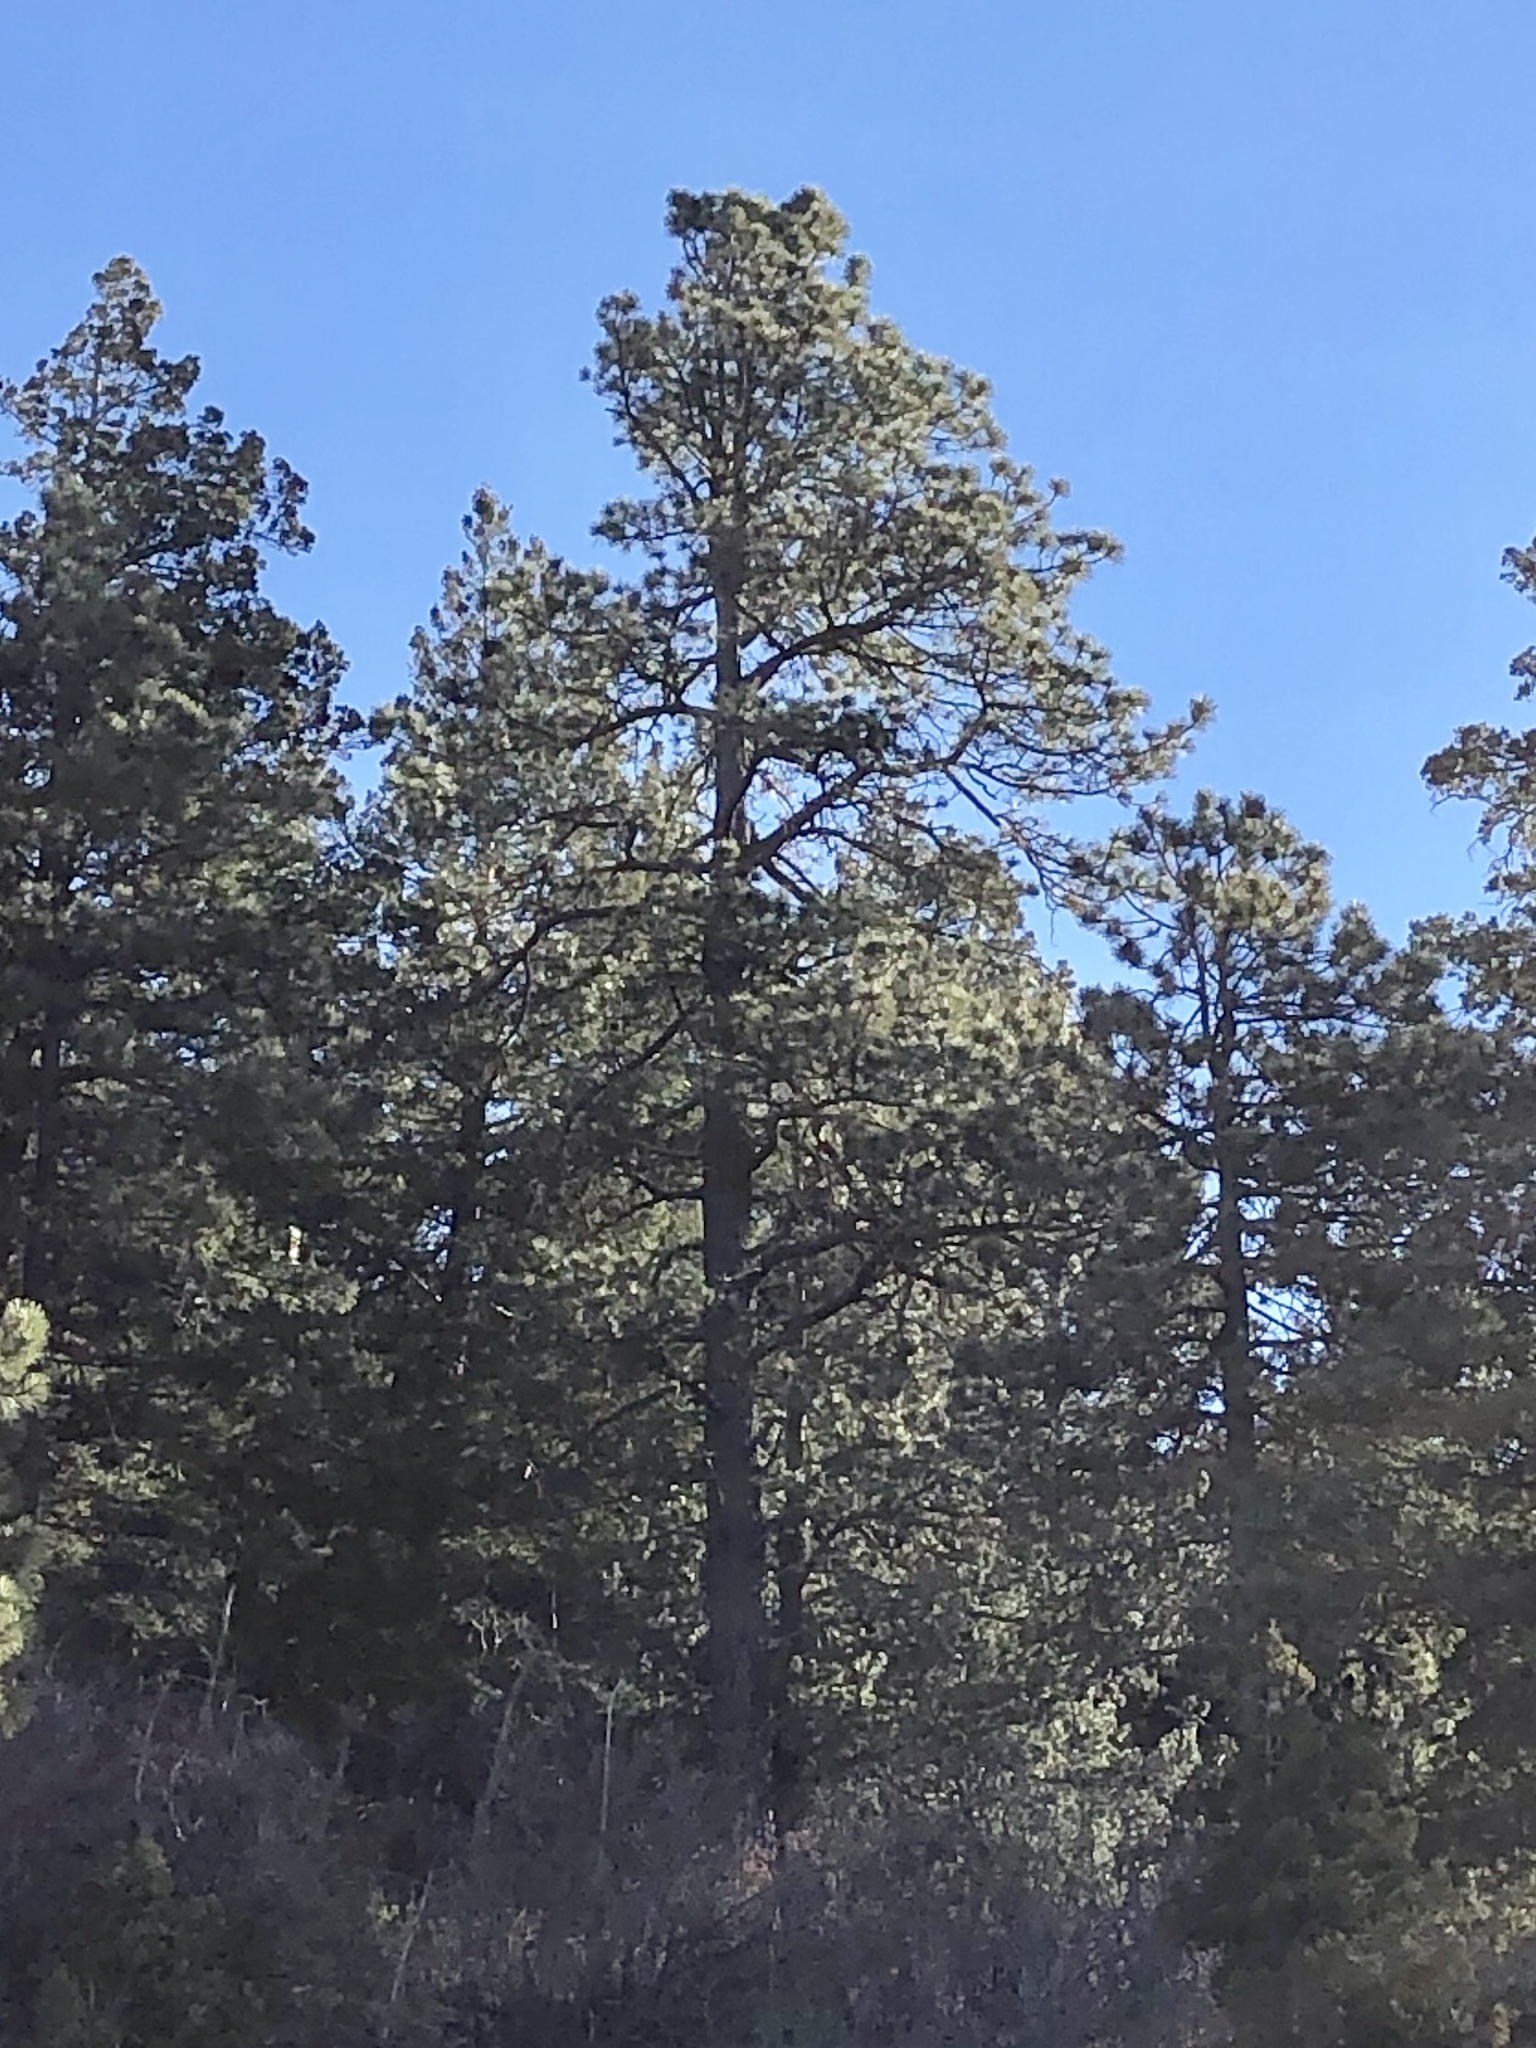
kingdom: Plantae
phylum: Tracheophyta
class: Pinopsida
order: Pinales
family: Pinaceae
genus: Pinus
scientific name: Pinus ponderosa
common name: Western yellow-pine
